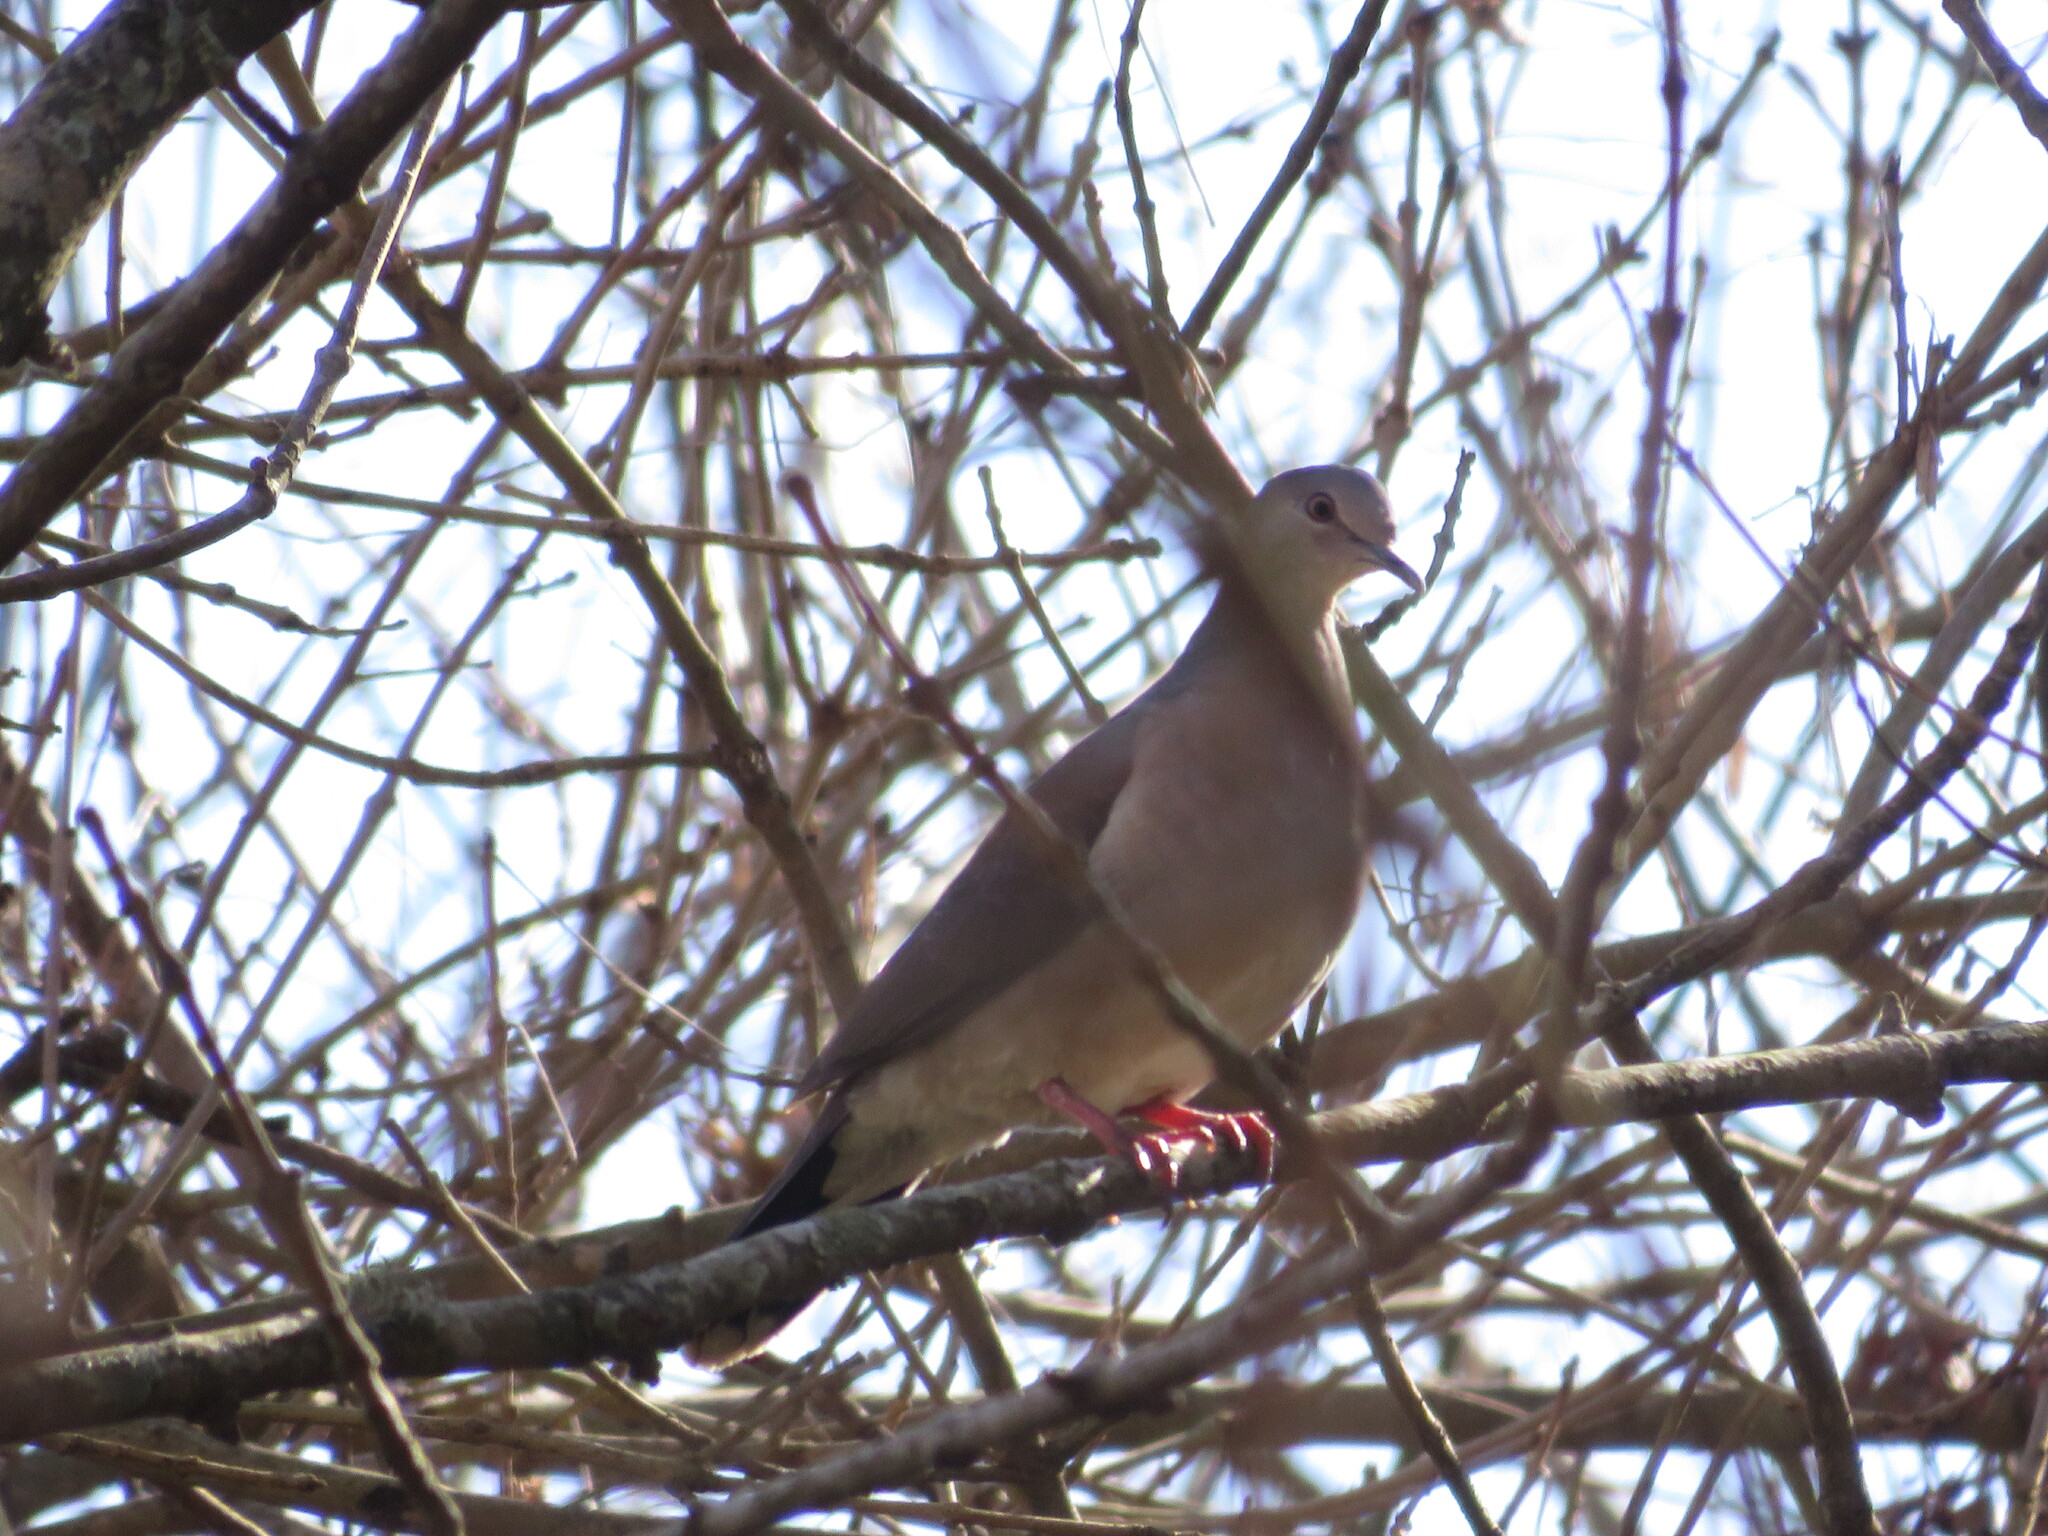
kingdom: Animalia
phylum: Chordata
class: Aves
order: Columbiformes
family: Columbidae
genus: Leptotila
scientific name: Leptotila verreauxi
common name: White-tipped dove
